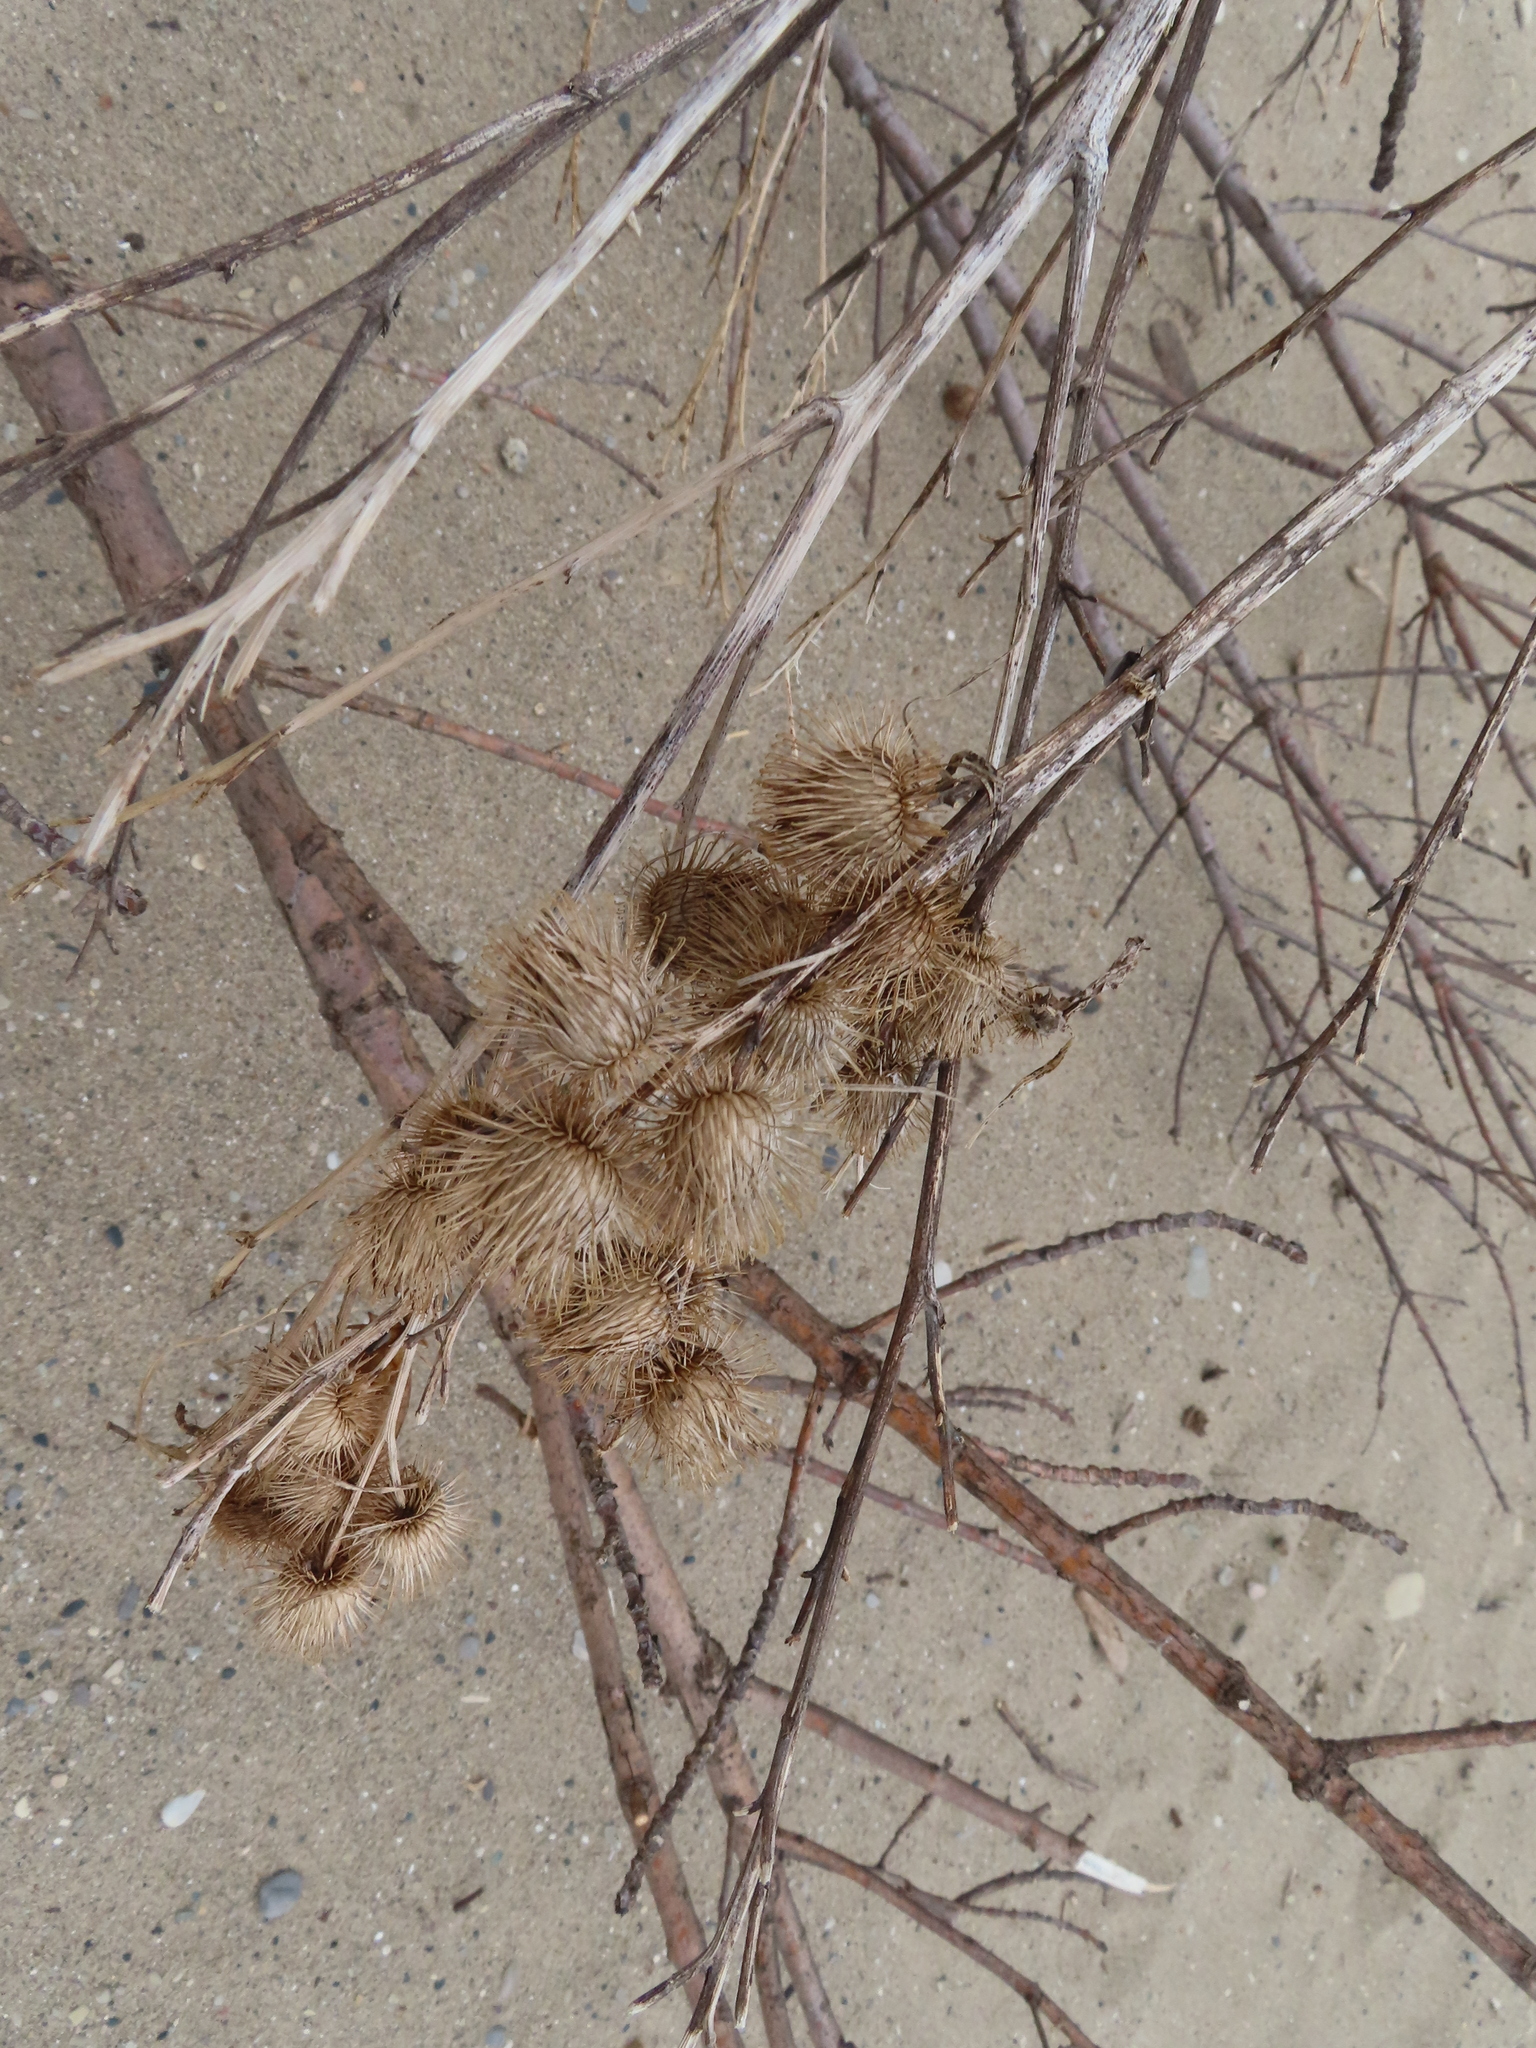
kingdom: Plantae
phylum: Tracheophyta
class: Magnoliopsida
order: Asterales
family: Asteraceae
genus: Arctium
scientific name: Arctium minus
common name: Lesser burdock
